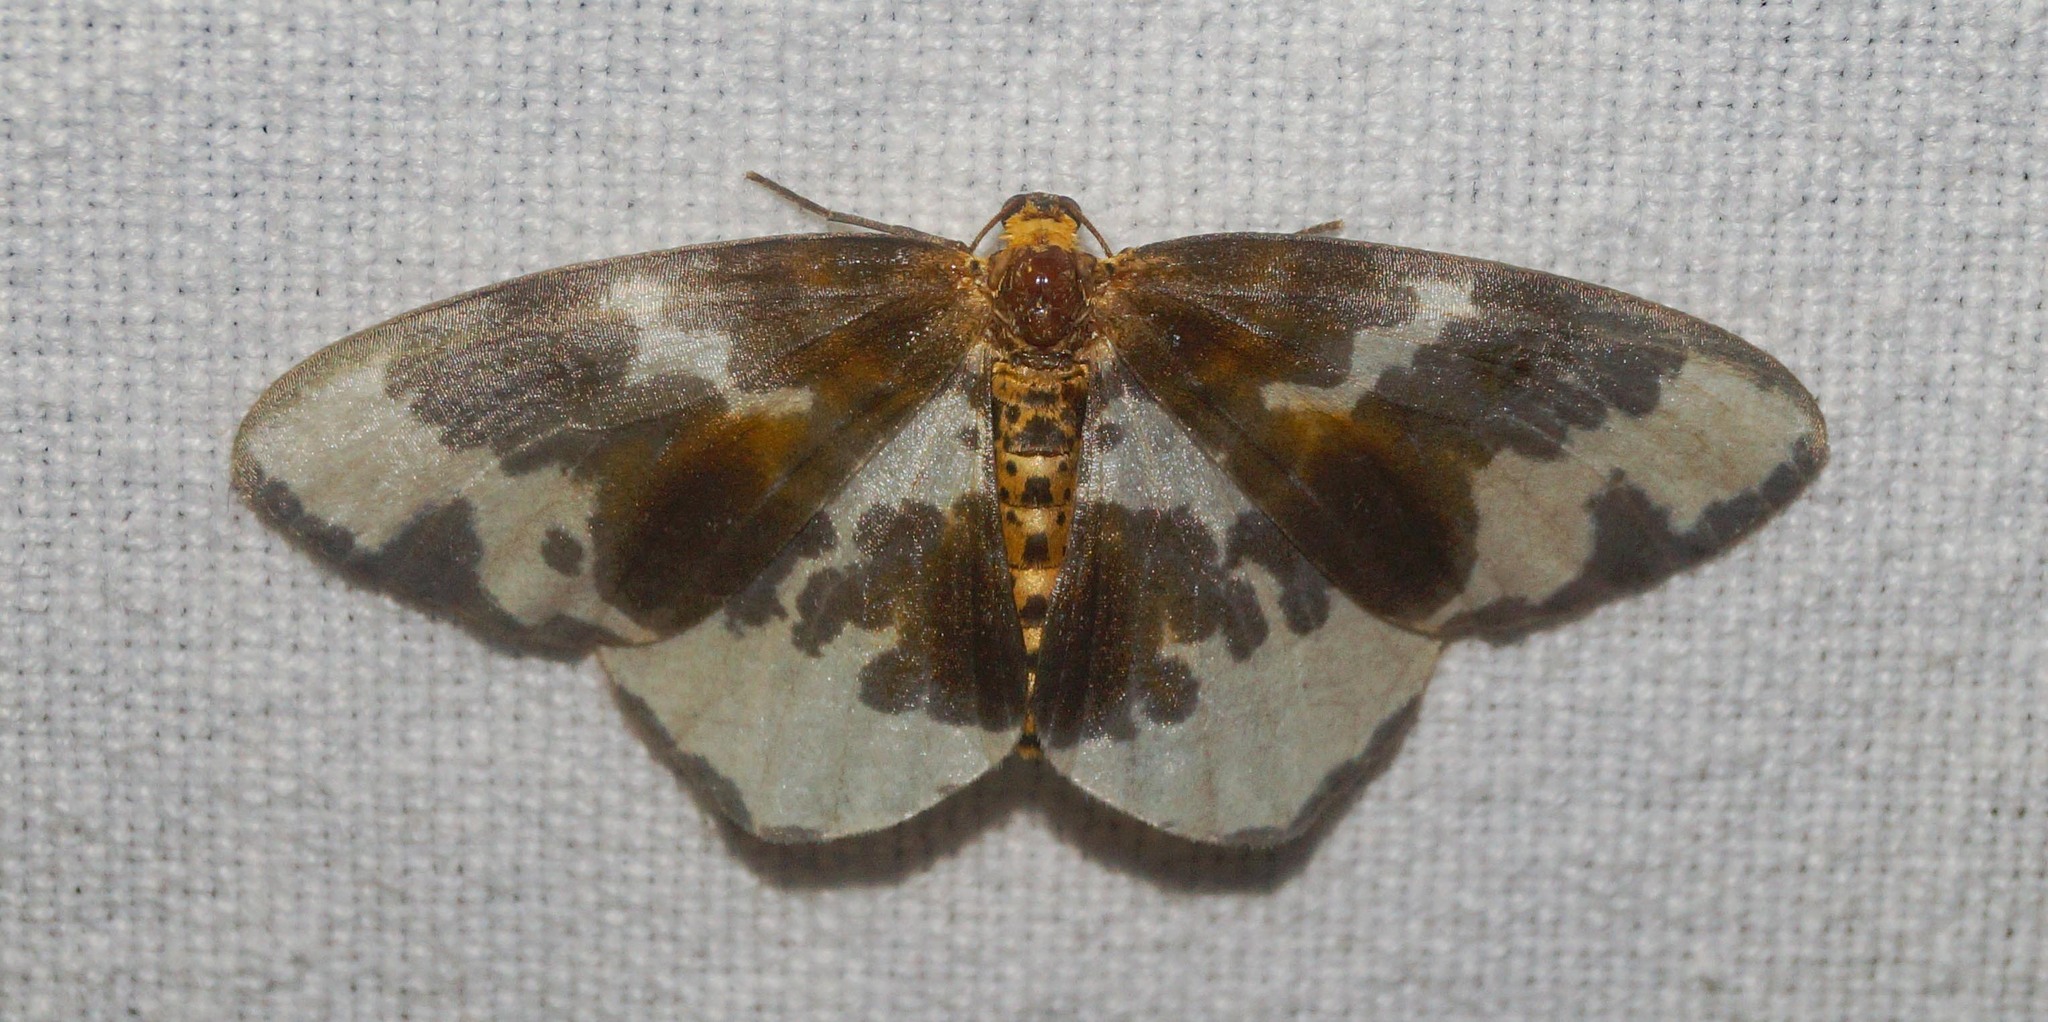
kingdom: Animalia
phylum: Arthropoda
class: Insecta
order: Lepidoptera
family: Geometridae
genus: Abraxas
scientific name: Abraxas sylvata
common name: Clouded magpie
